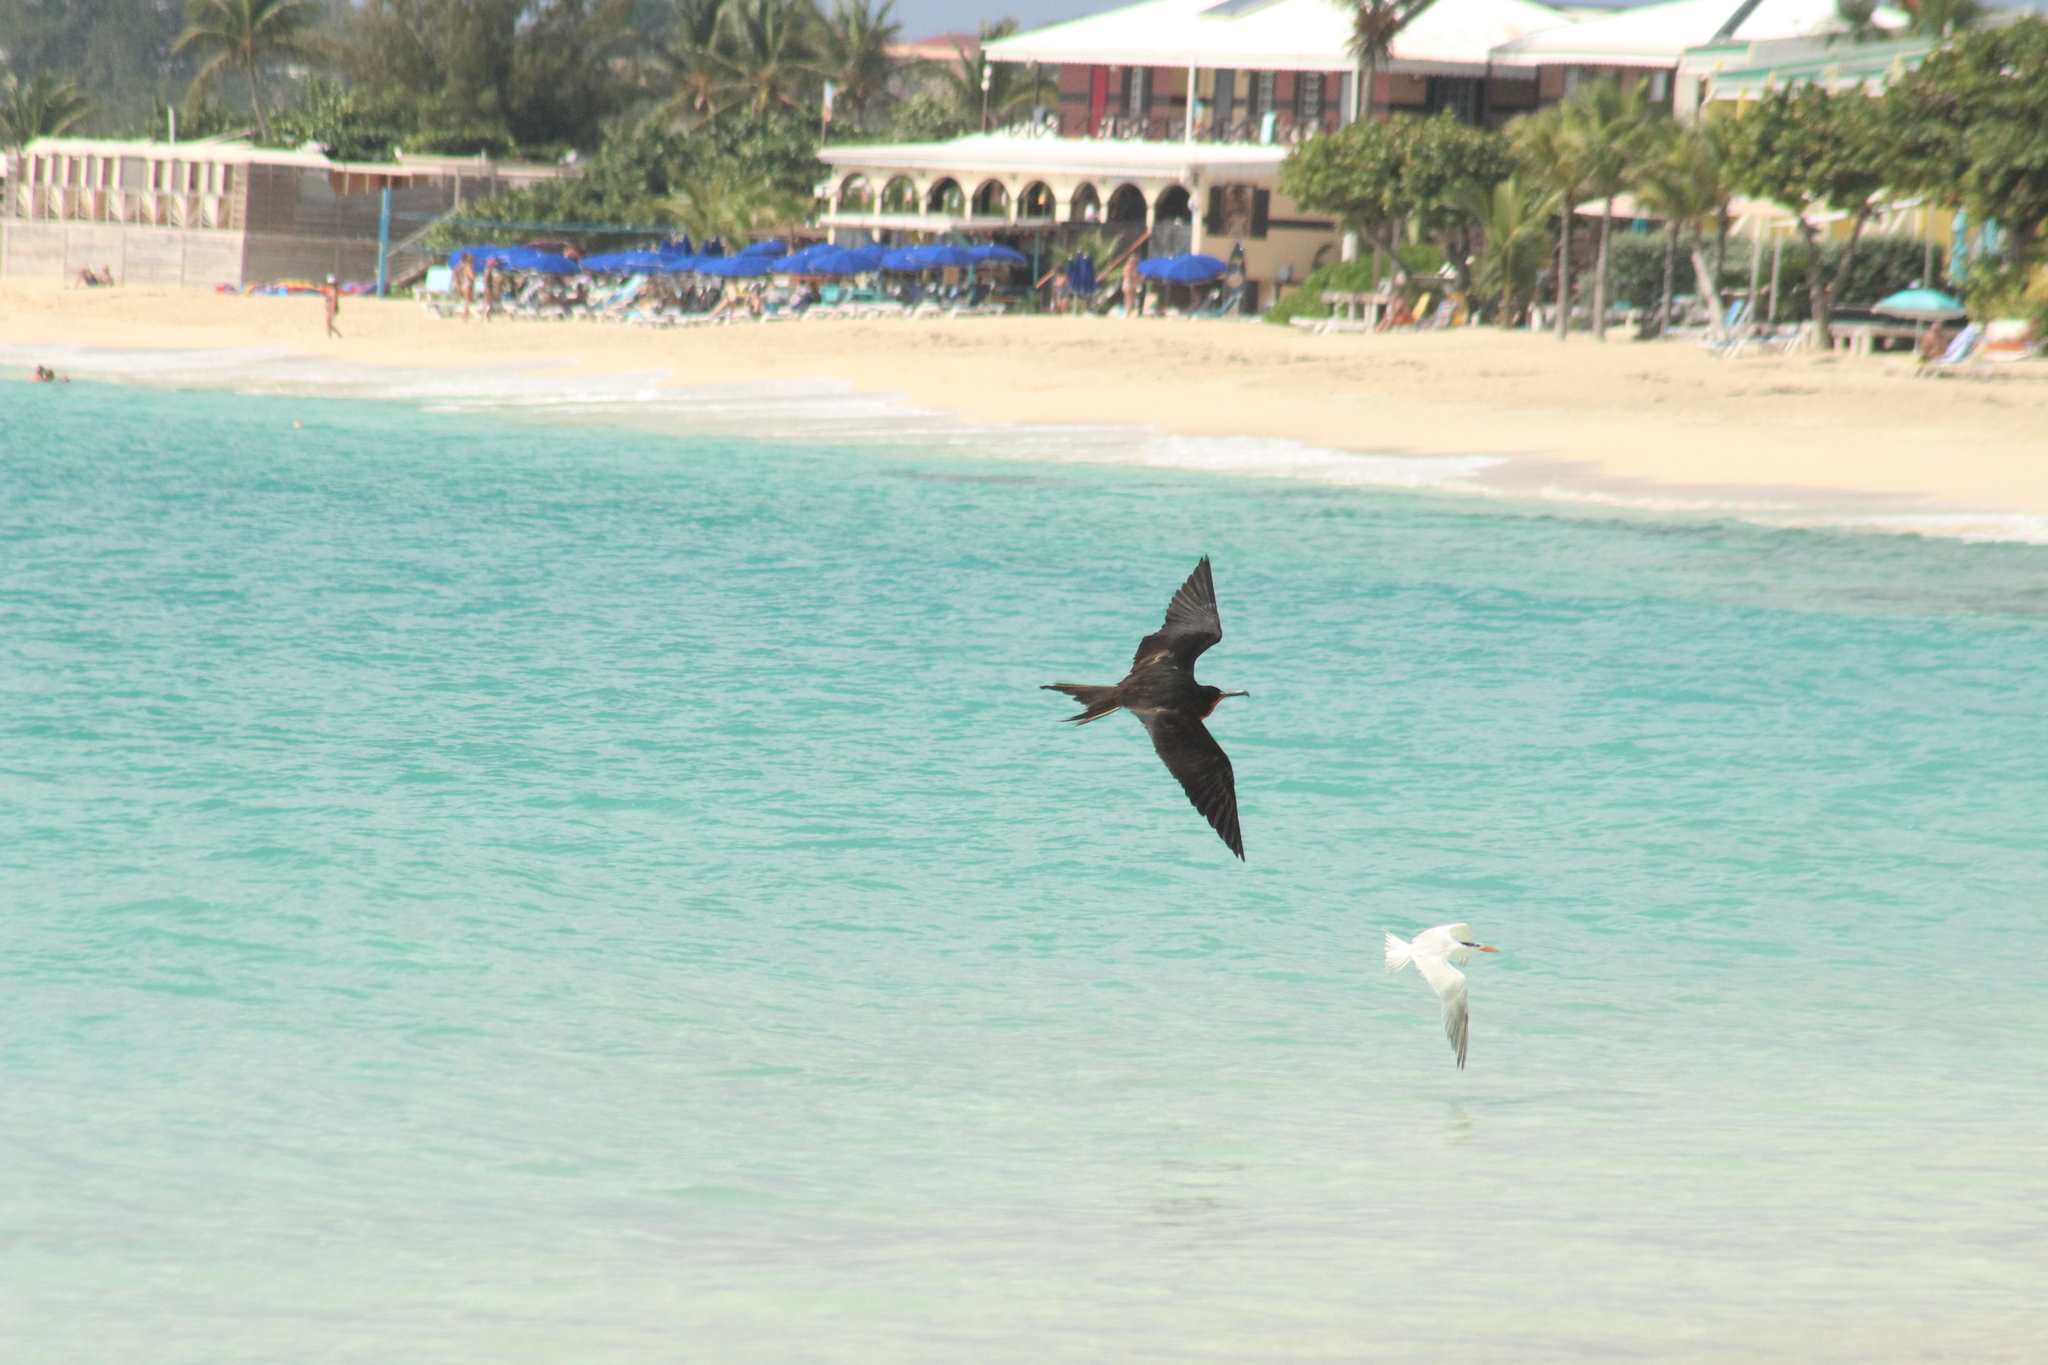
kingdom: Animalia
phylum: Chordata
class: Aves
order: Suliformes
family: Fregatidae
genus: Fregata
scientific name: Fregata magnificens
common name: Magnificent frigatebird
